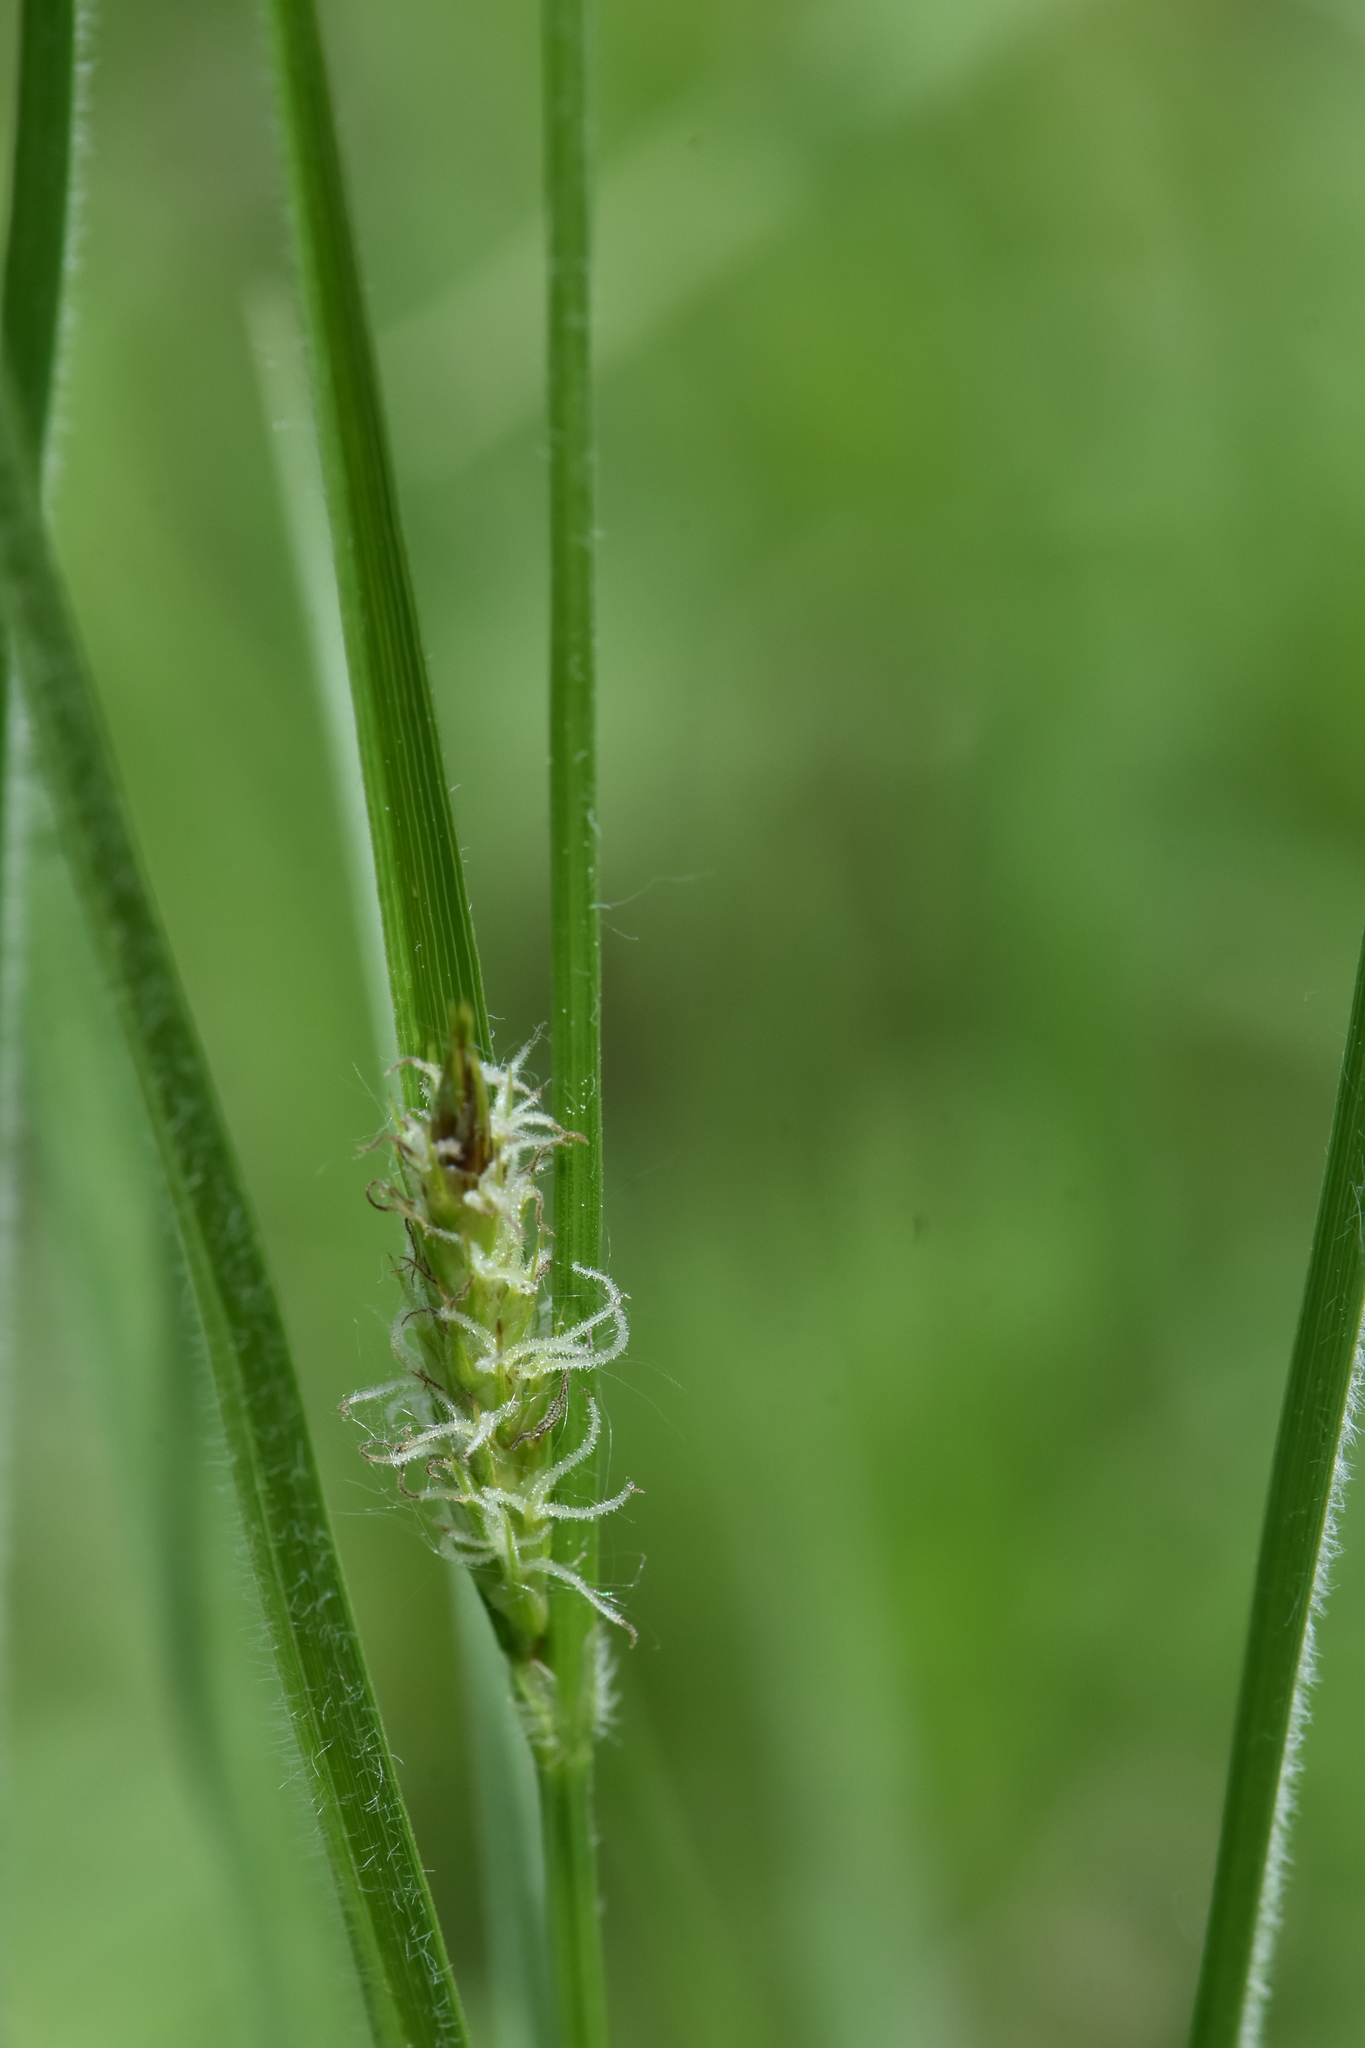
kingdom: Plantae
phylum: Tracheophyta
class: Liliopsida
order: Poales
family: Cyperaceae
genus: Carex
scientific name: Carex hirta
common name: Hairy sedge
